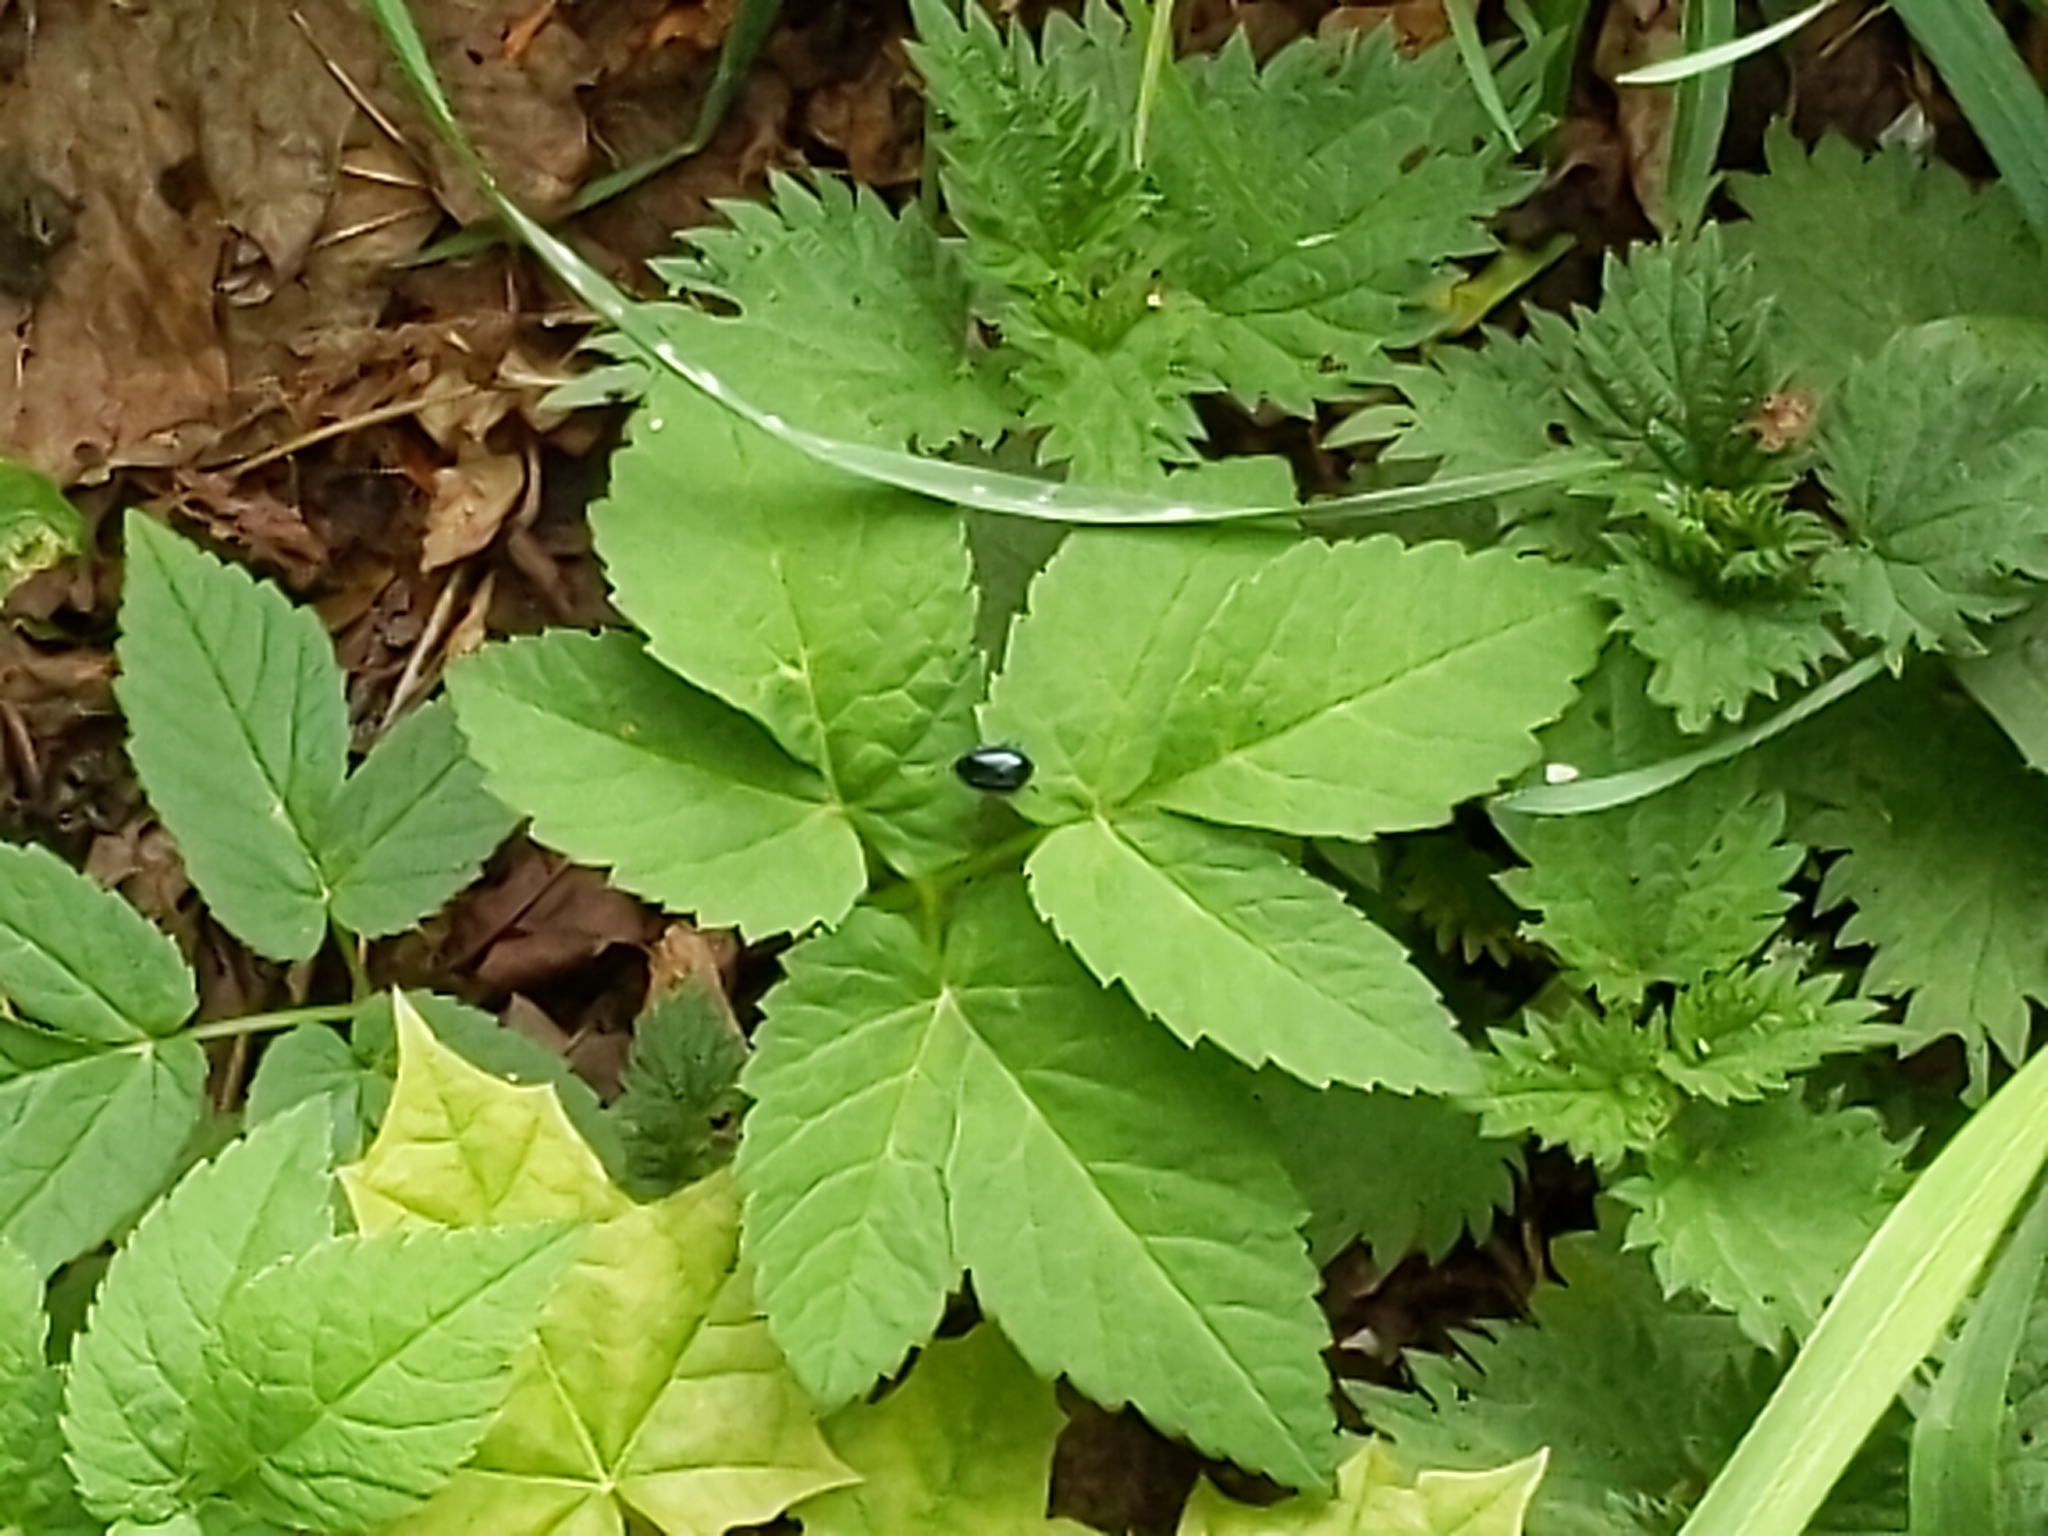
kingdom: Plantae
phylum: Tracheophyta
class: Magnoliopsida
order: Apiales
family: Apiaceae
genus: Aegopodium
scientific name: Aegopodium podagraria
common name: Ground-elder
